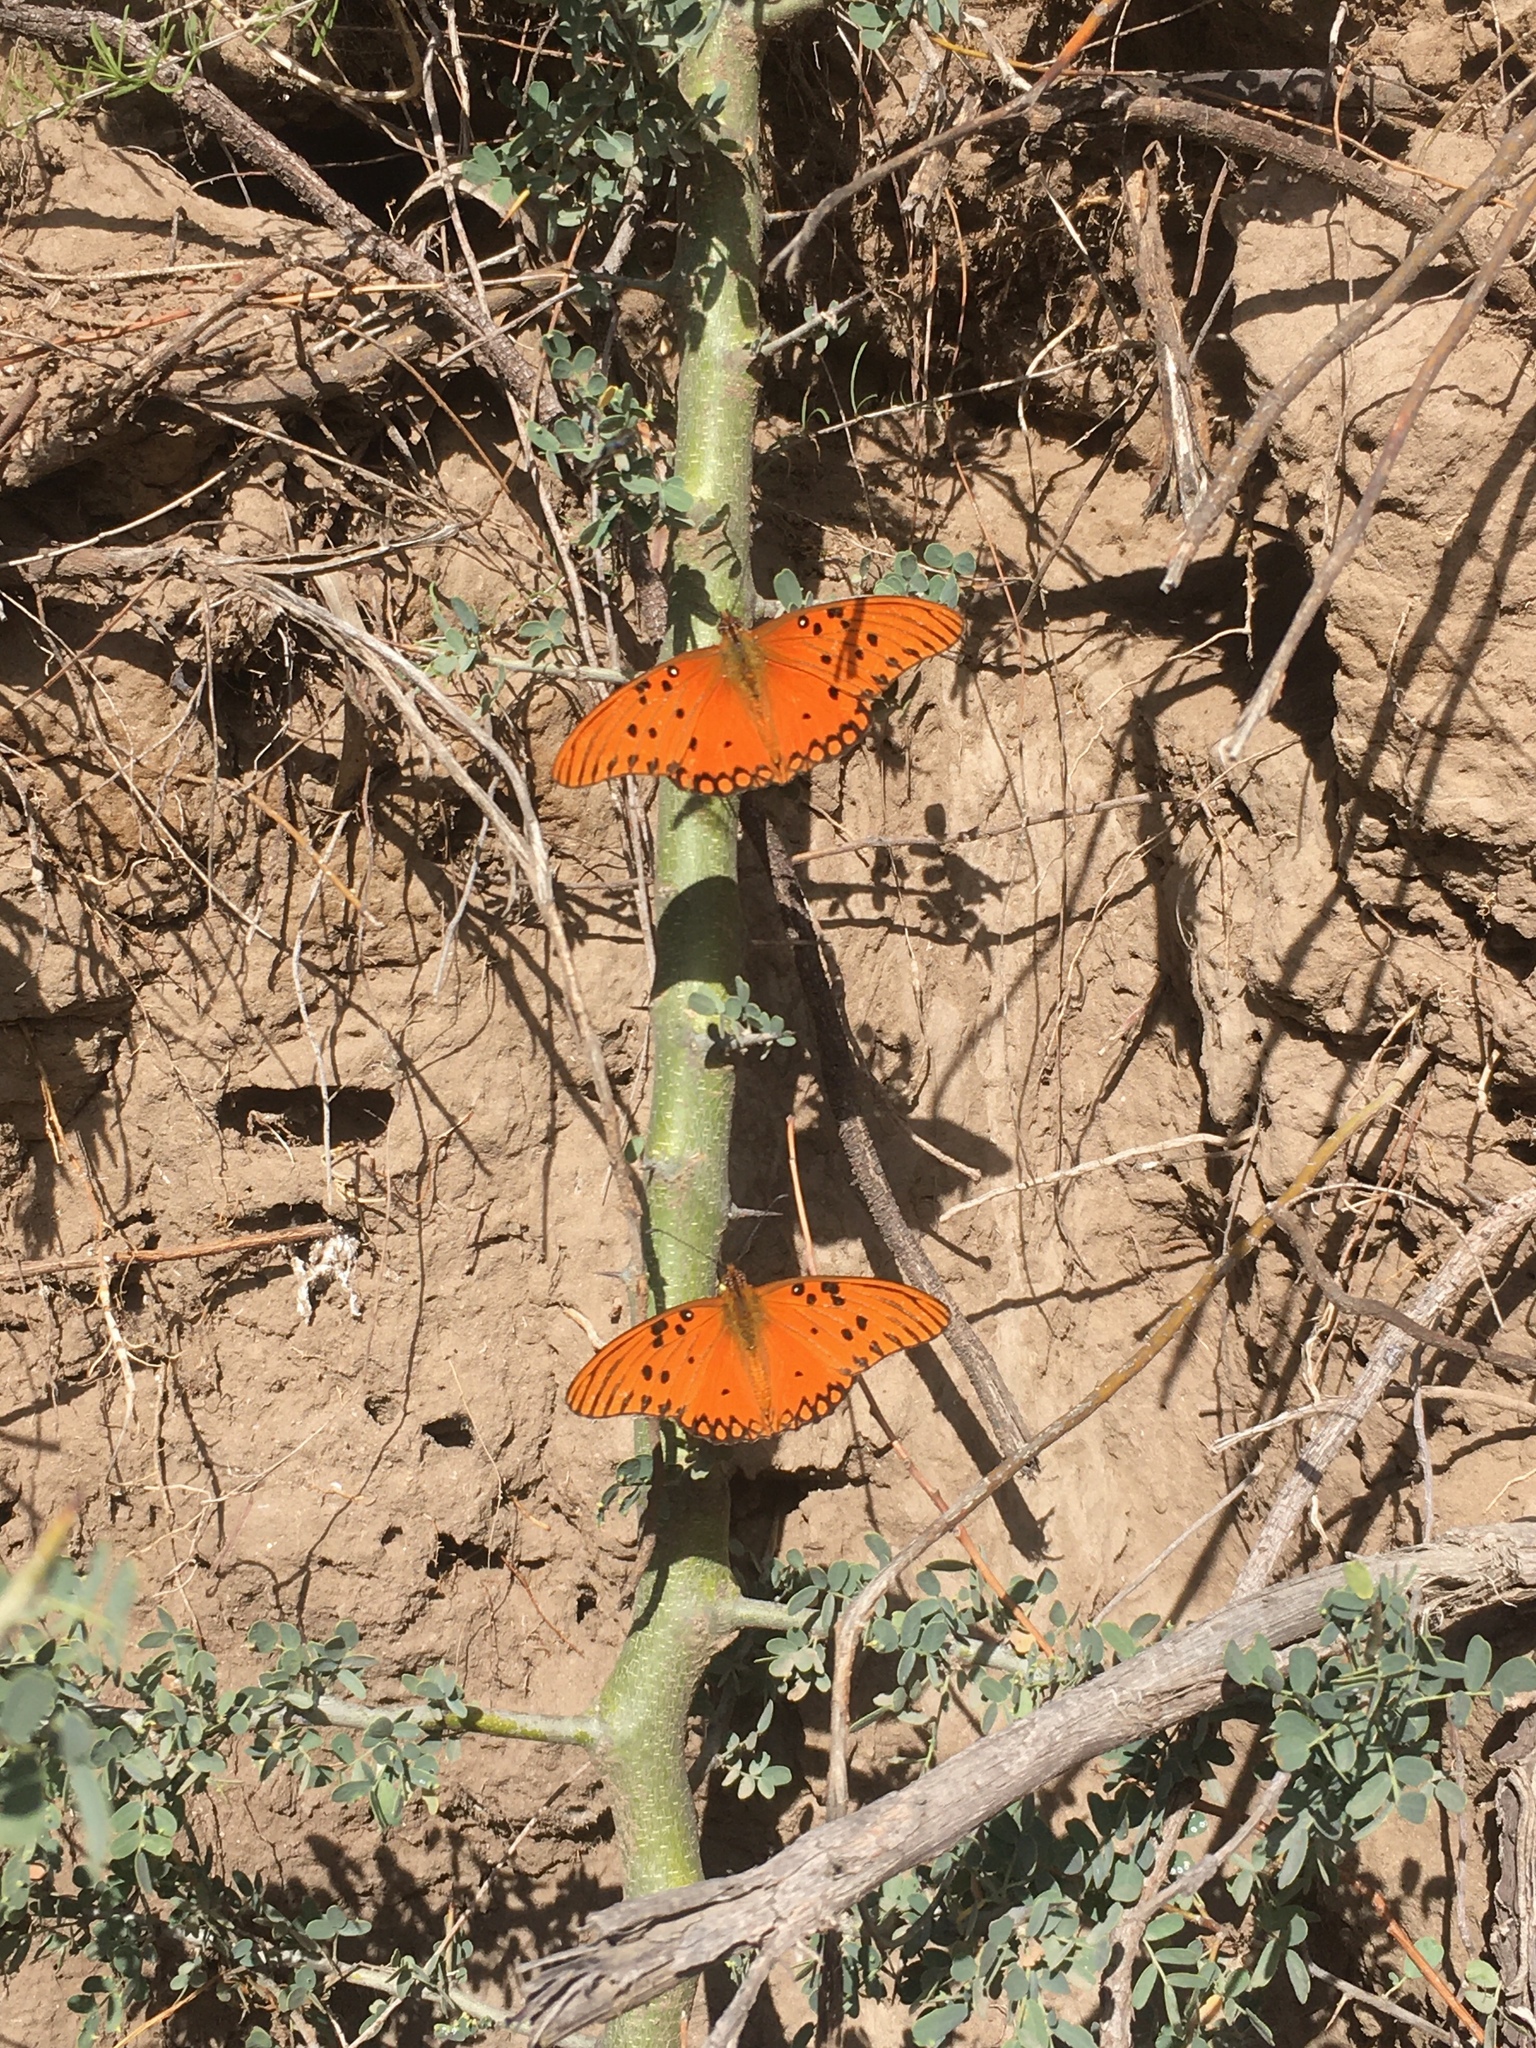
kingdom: Animalia
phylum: Arthropoda
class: Insecta
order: Lepidoptera
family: Nymphalidae
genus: Dione
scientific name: Dione vanillae
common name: Gulf fritillary
